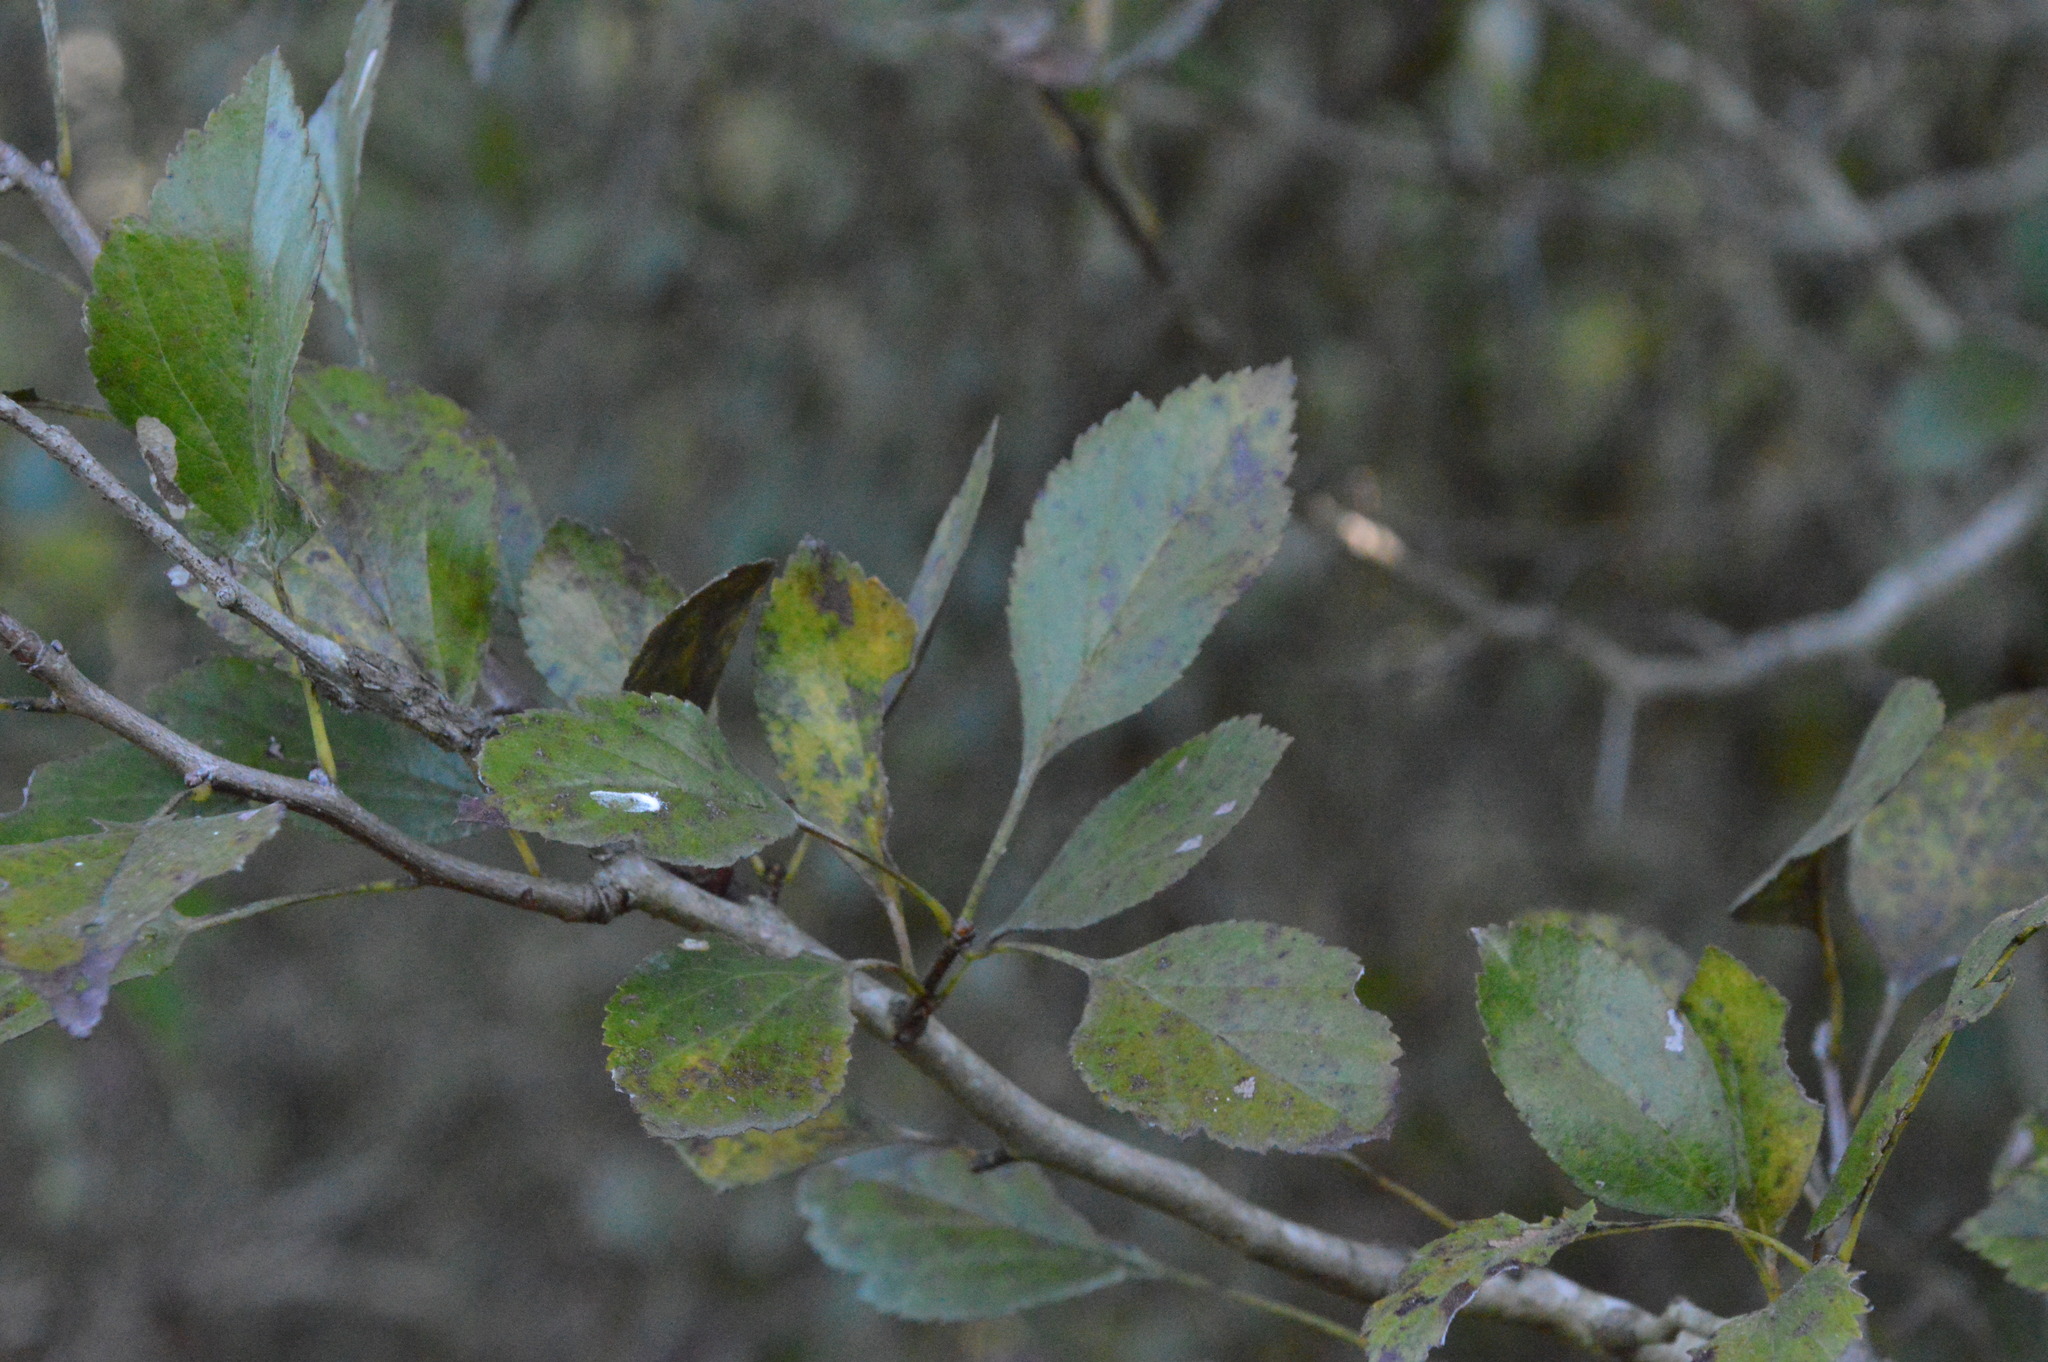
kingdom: Plantae
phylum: Tracheophyta
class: Magnoliopsida
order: Rosales
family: Rosaceae
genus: Crataegus
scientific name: Crataegus viridis
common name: Southernthorn
